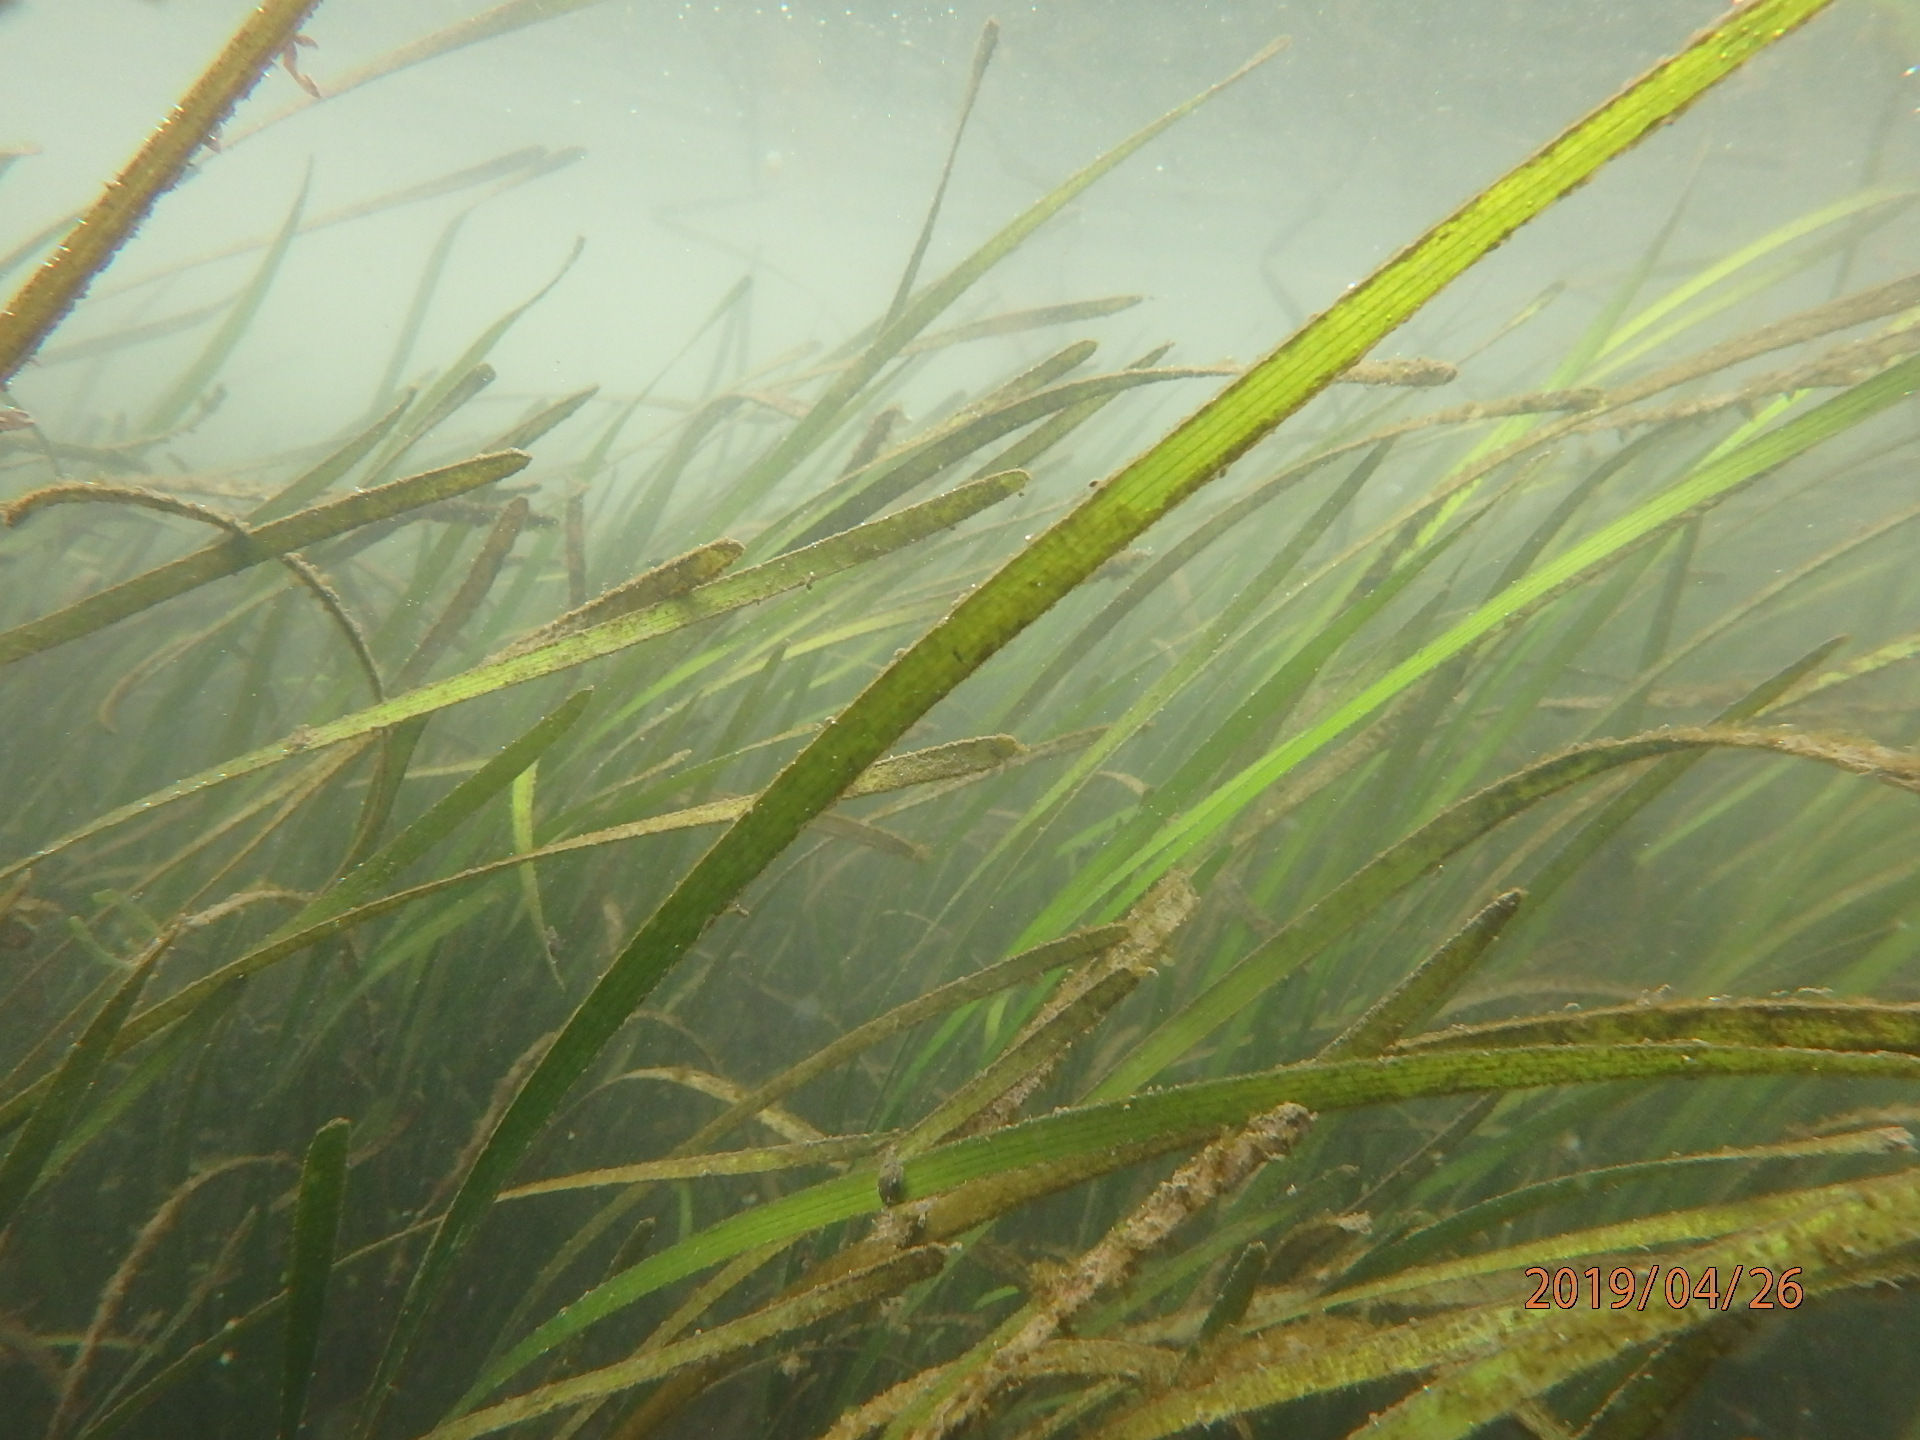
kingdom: Plantae
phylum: Tracheophyta
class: Liliopsida
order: Alismatales
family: Zosteraceae
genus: Zostera
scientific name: Zostera marina
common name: Eelgrass
